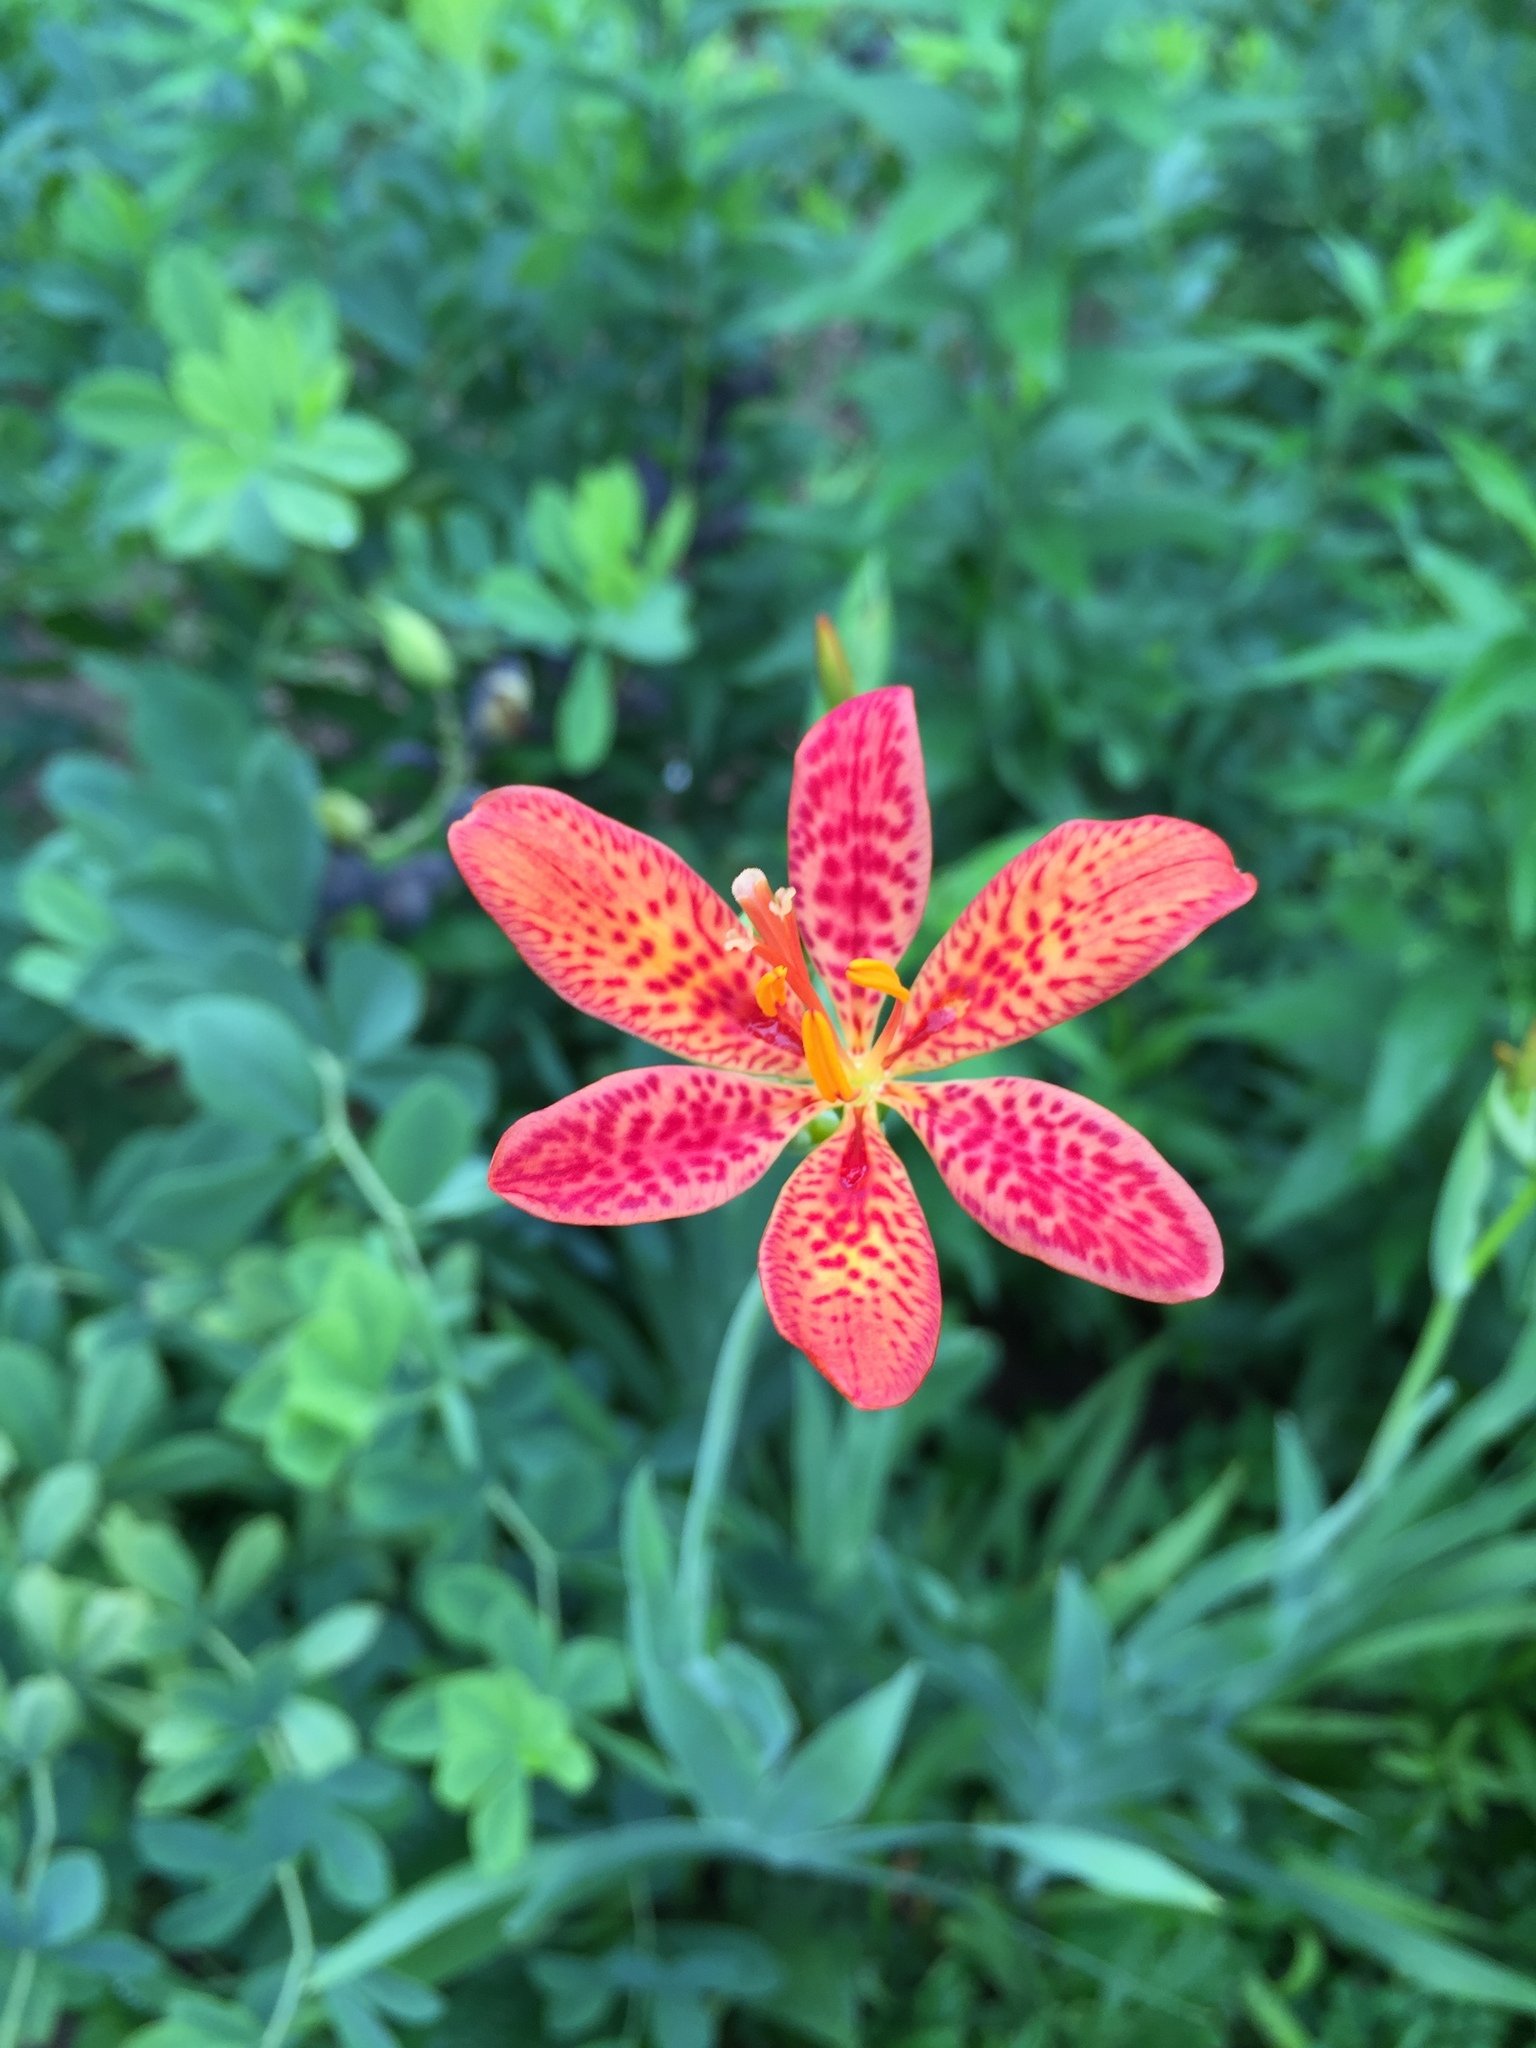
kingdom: Plantae
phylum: Tracheophyta
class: Liliopsida
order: Asparagales
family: Iridaceae
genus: Iris
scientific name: Iris domestica
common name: Belamcanda
